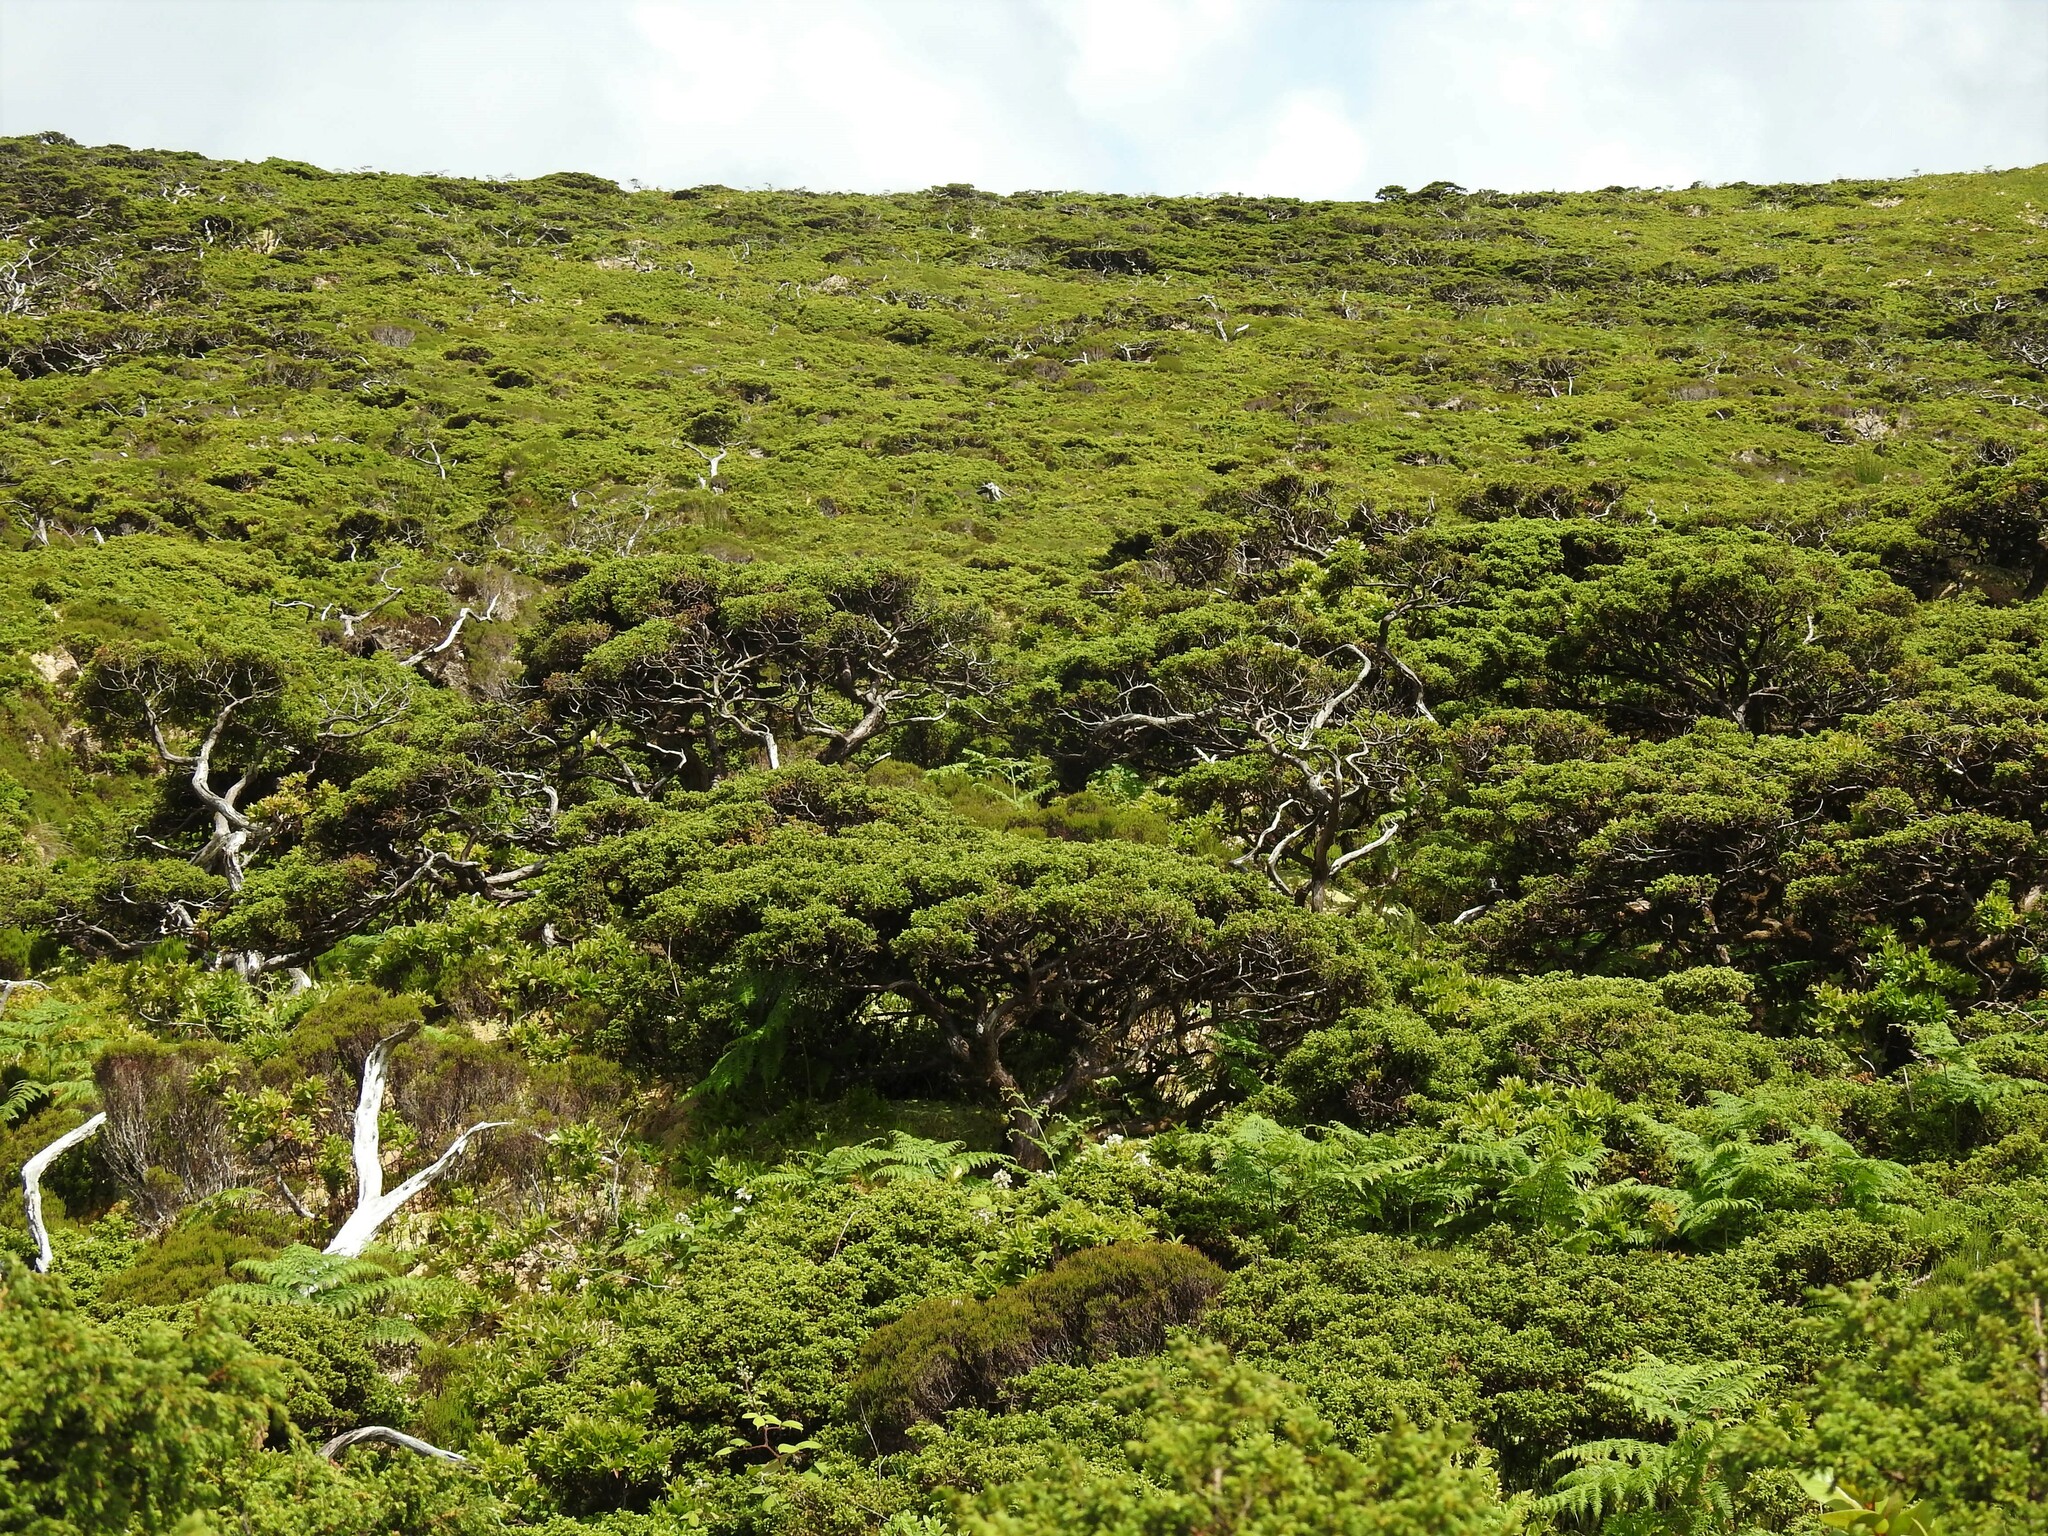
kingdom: Plantae
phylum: Tracheophyta
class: Pinopsida
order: Pinales
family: Cupressaceae
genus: Juniperus
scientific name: Juniperus brevifolia
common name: Azores juniper
